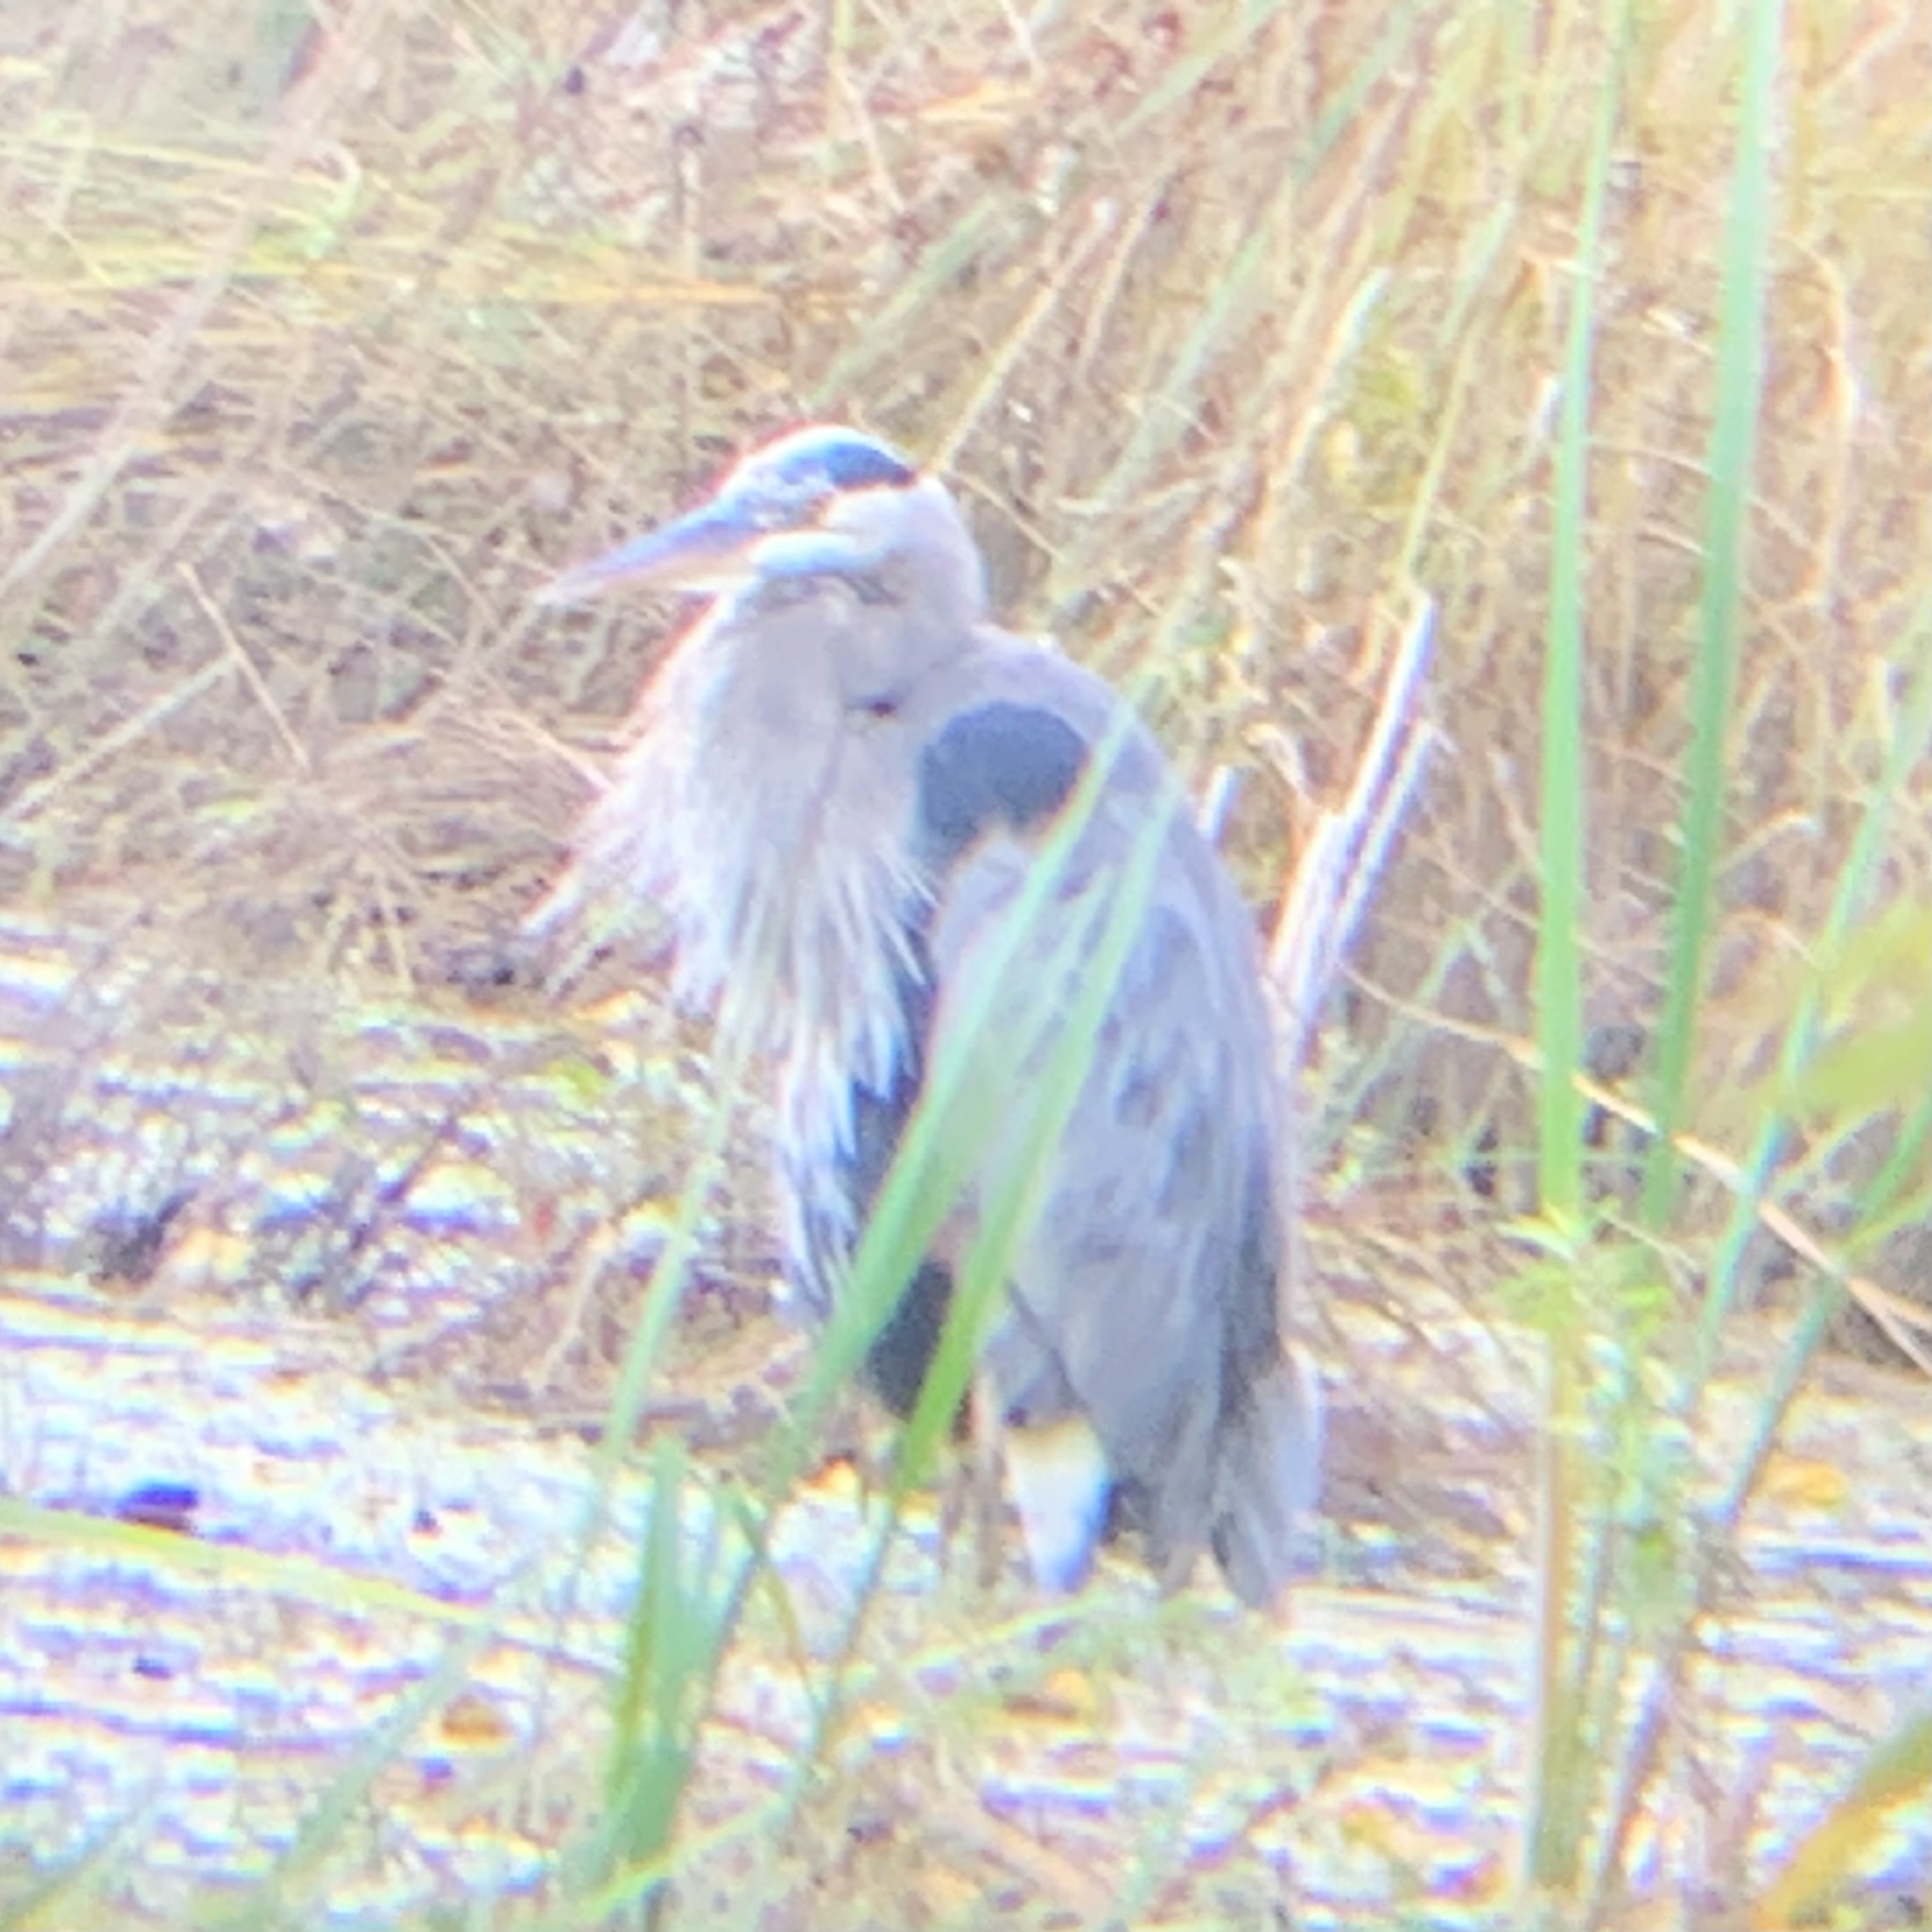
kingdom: Animalia
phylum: Chordata
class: Aves
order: Pelecaniformes
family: Ardeidae
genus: Ardea
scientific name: Ardea herodias
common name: Great blue heron
